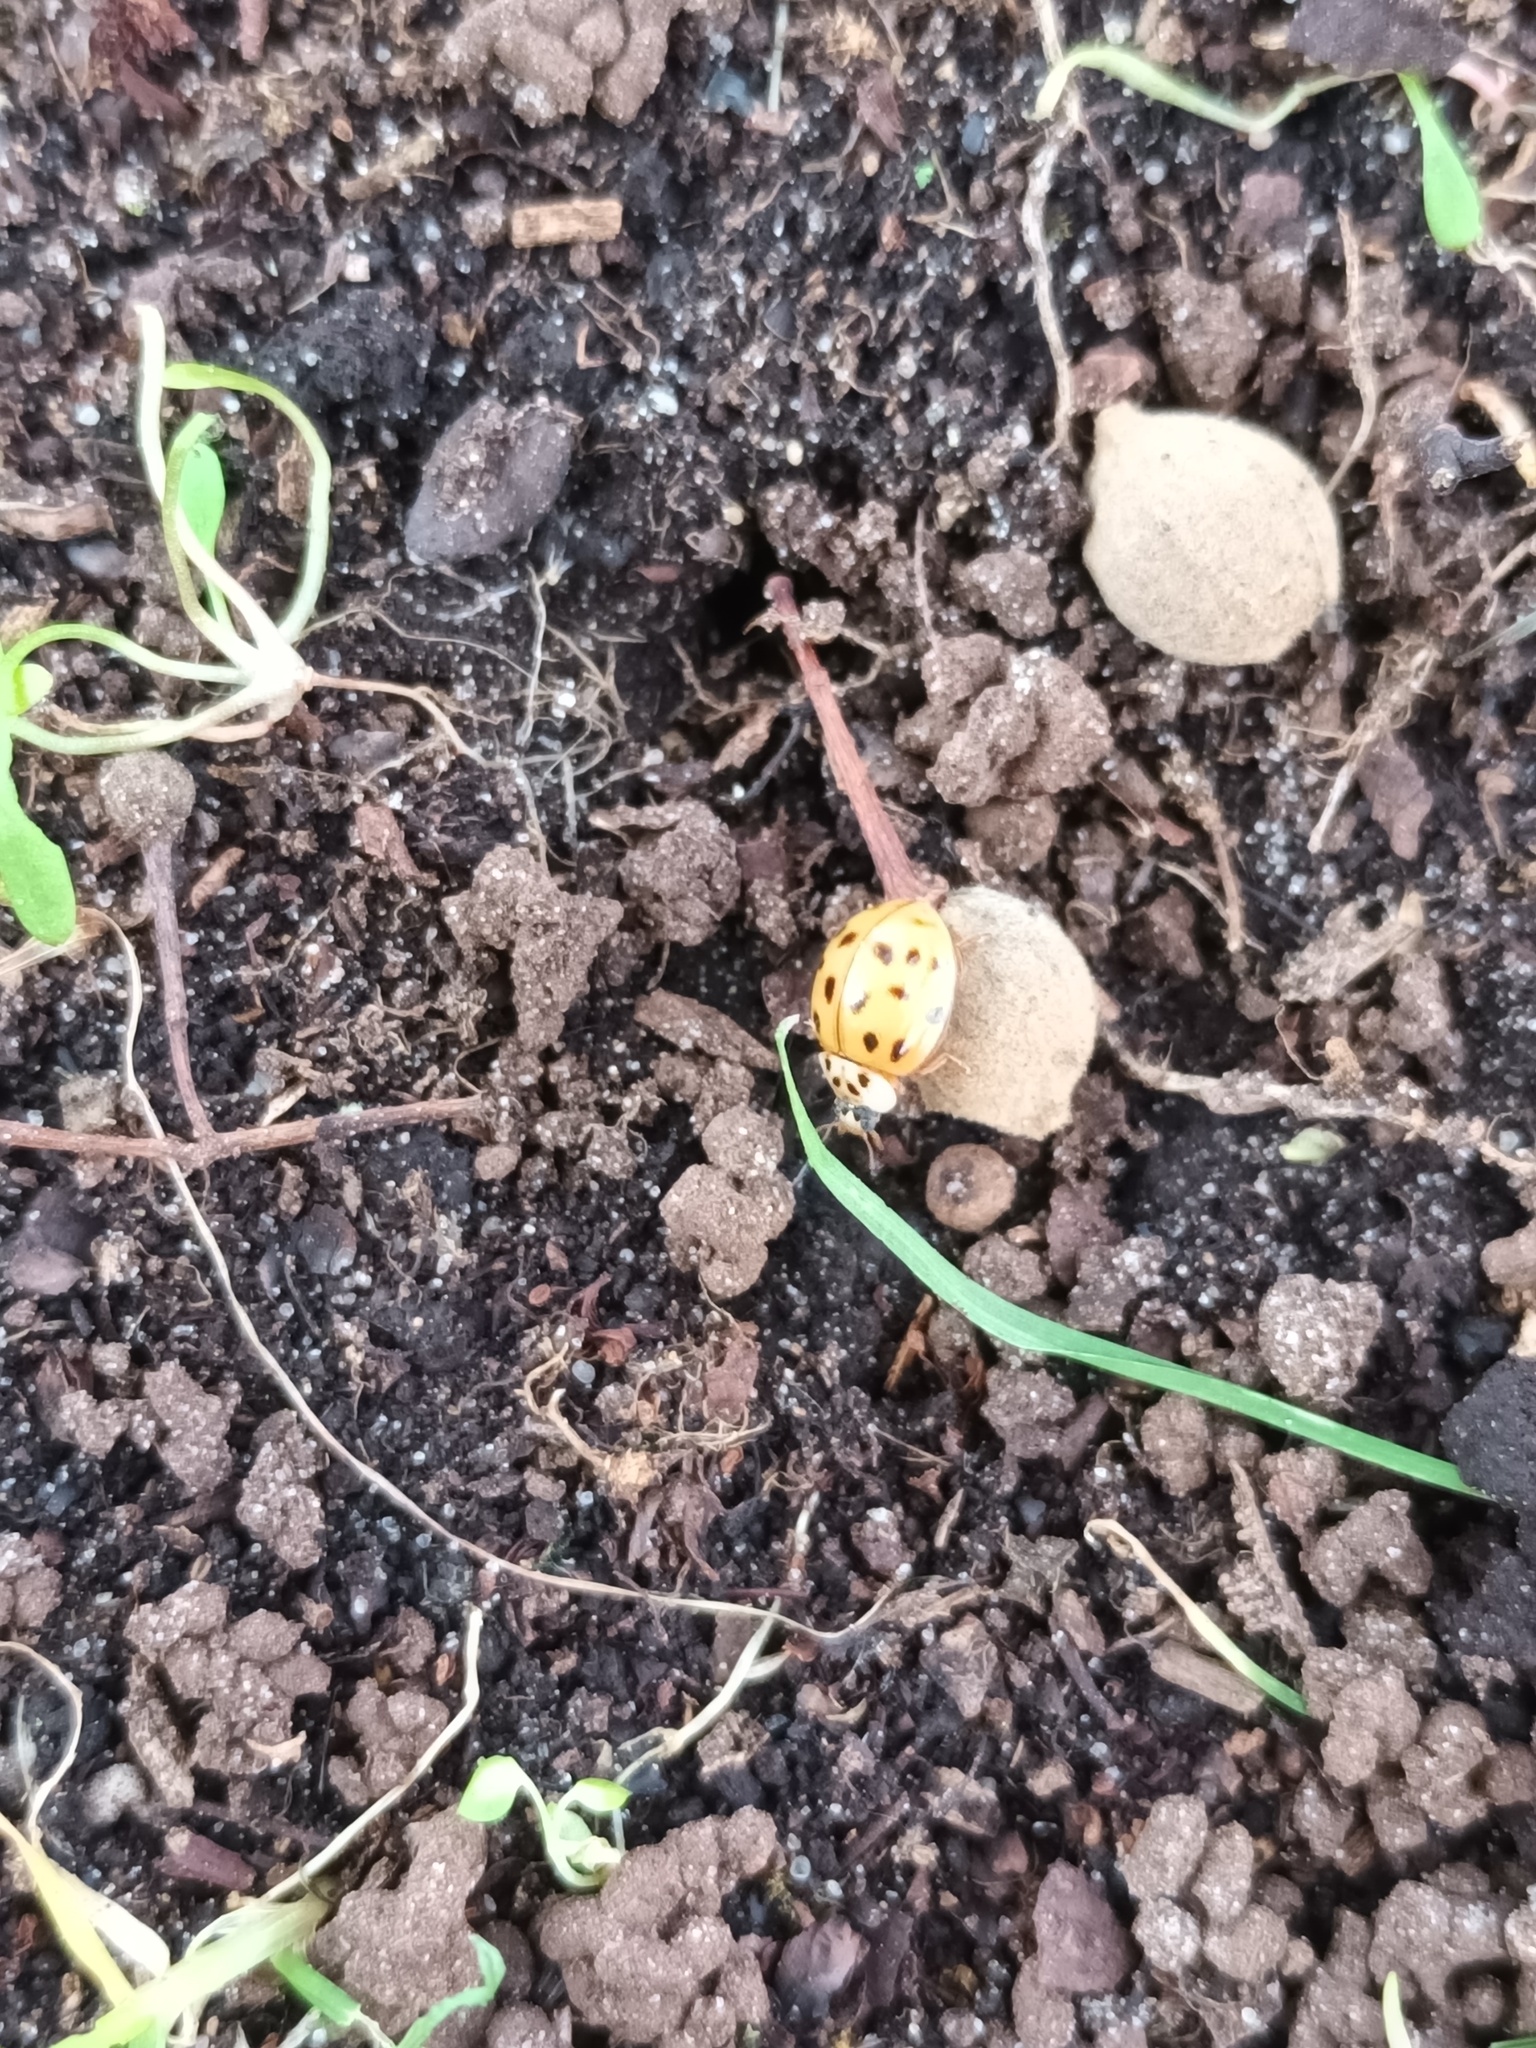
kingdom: Animalia
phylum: Arthropoda
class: Insecta
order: Coleoptera
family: Coccinellidae
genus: Harmonia
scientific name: Harmonia axyridis
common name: Harlequin ladybird
